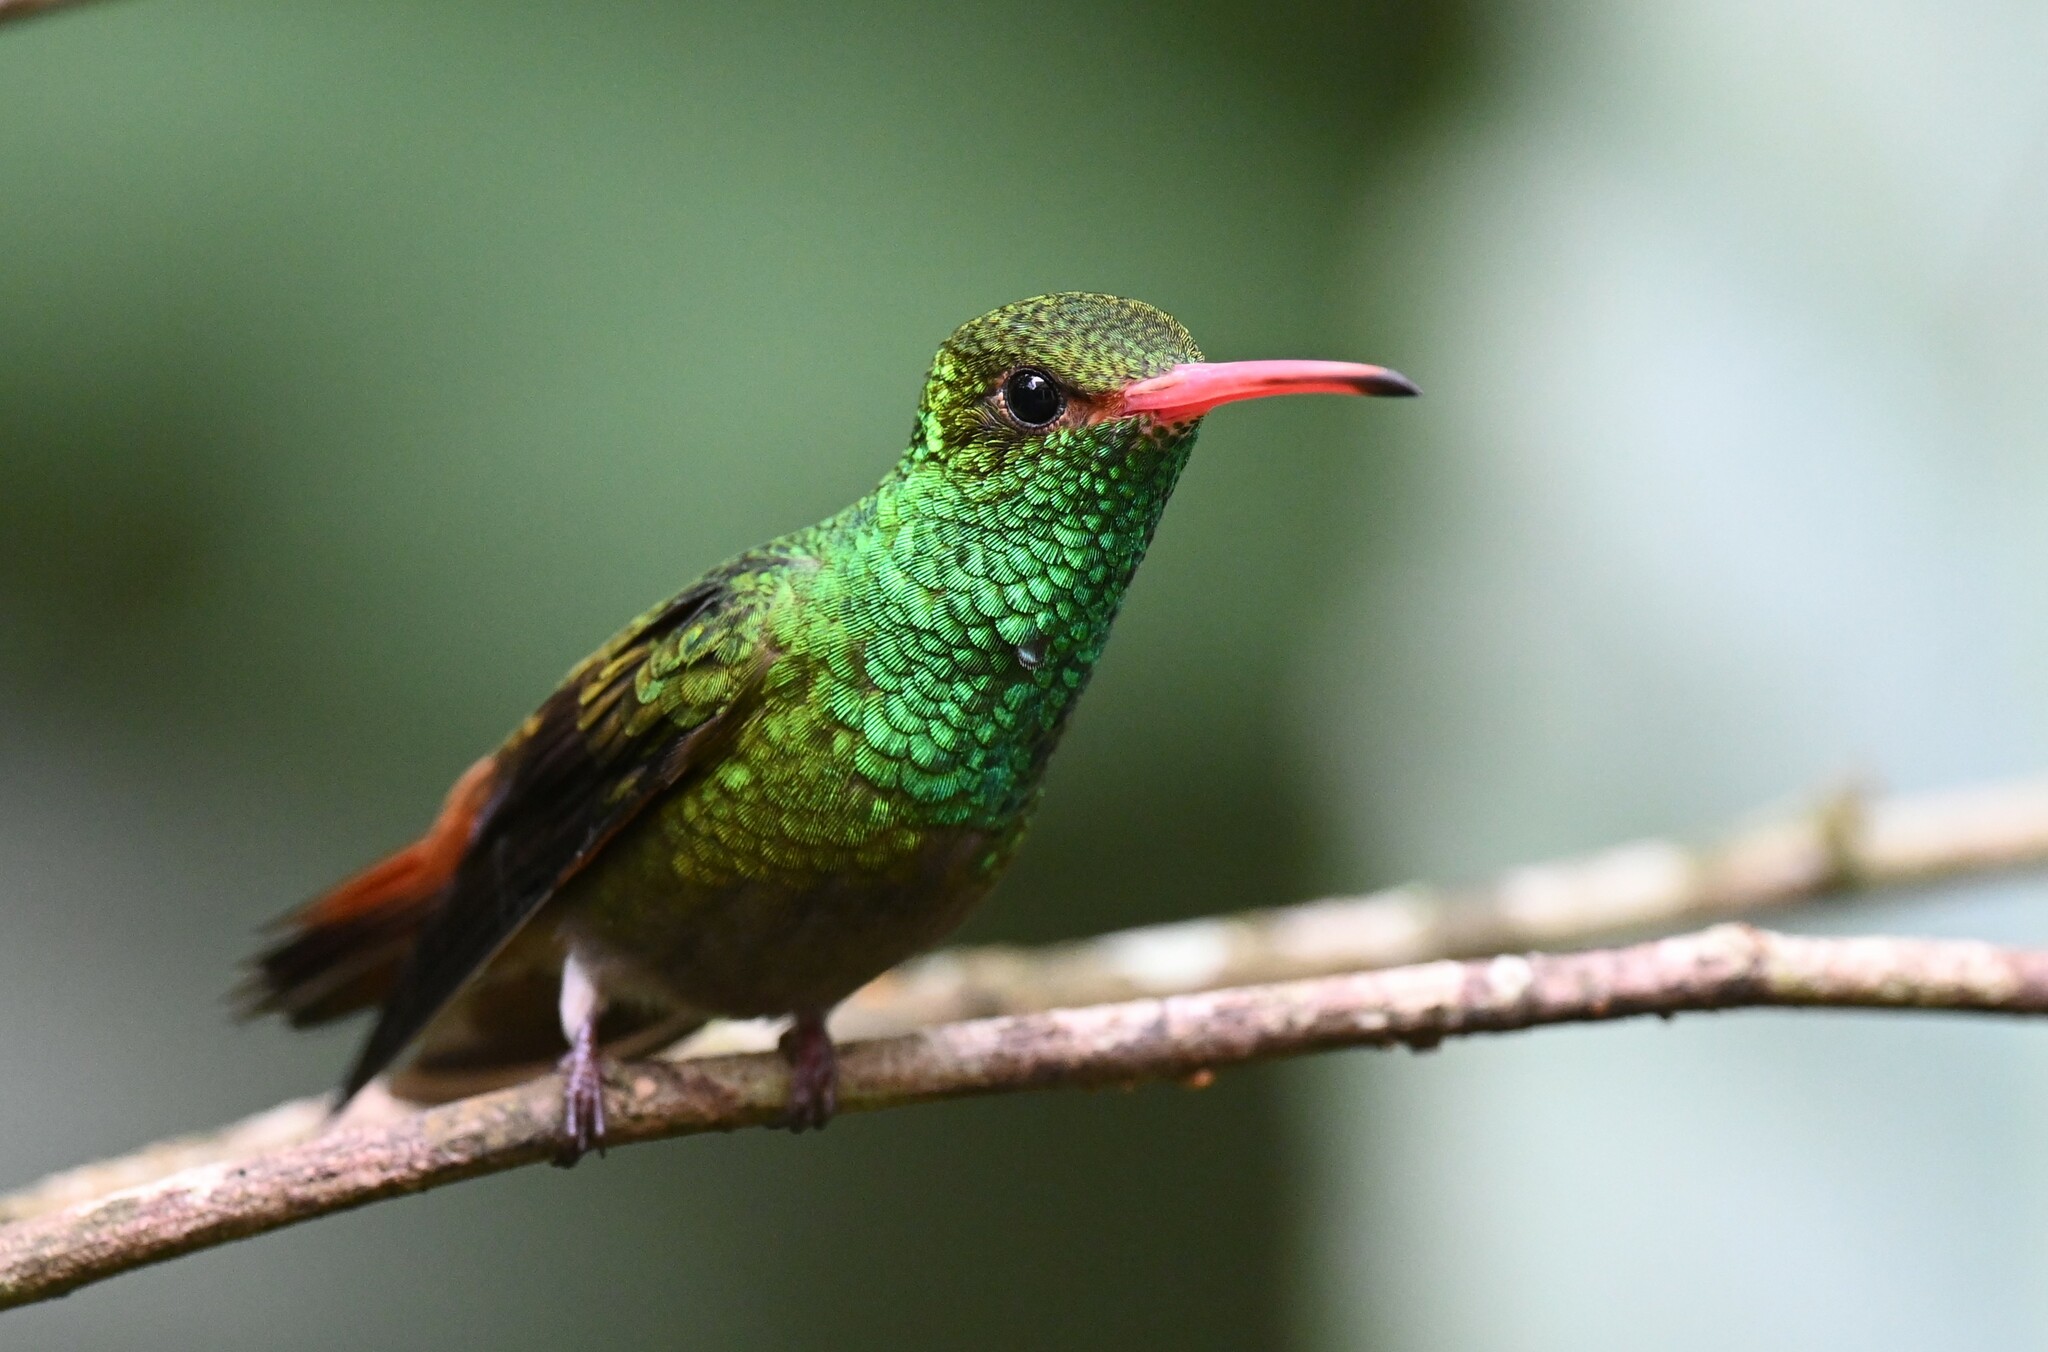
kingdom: Animalia
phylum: Chordata
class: Aves
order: Apodiformes
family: Trochilidae
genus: Amazilia
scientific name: Amazilia tzacatl
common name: Rufous-tailed hummingbird
